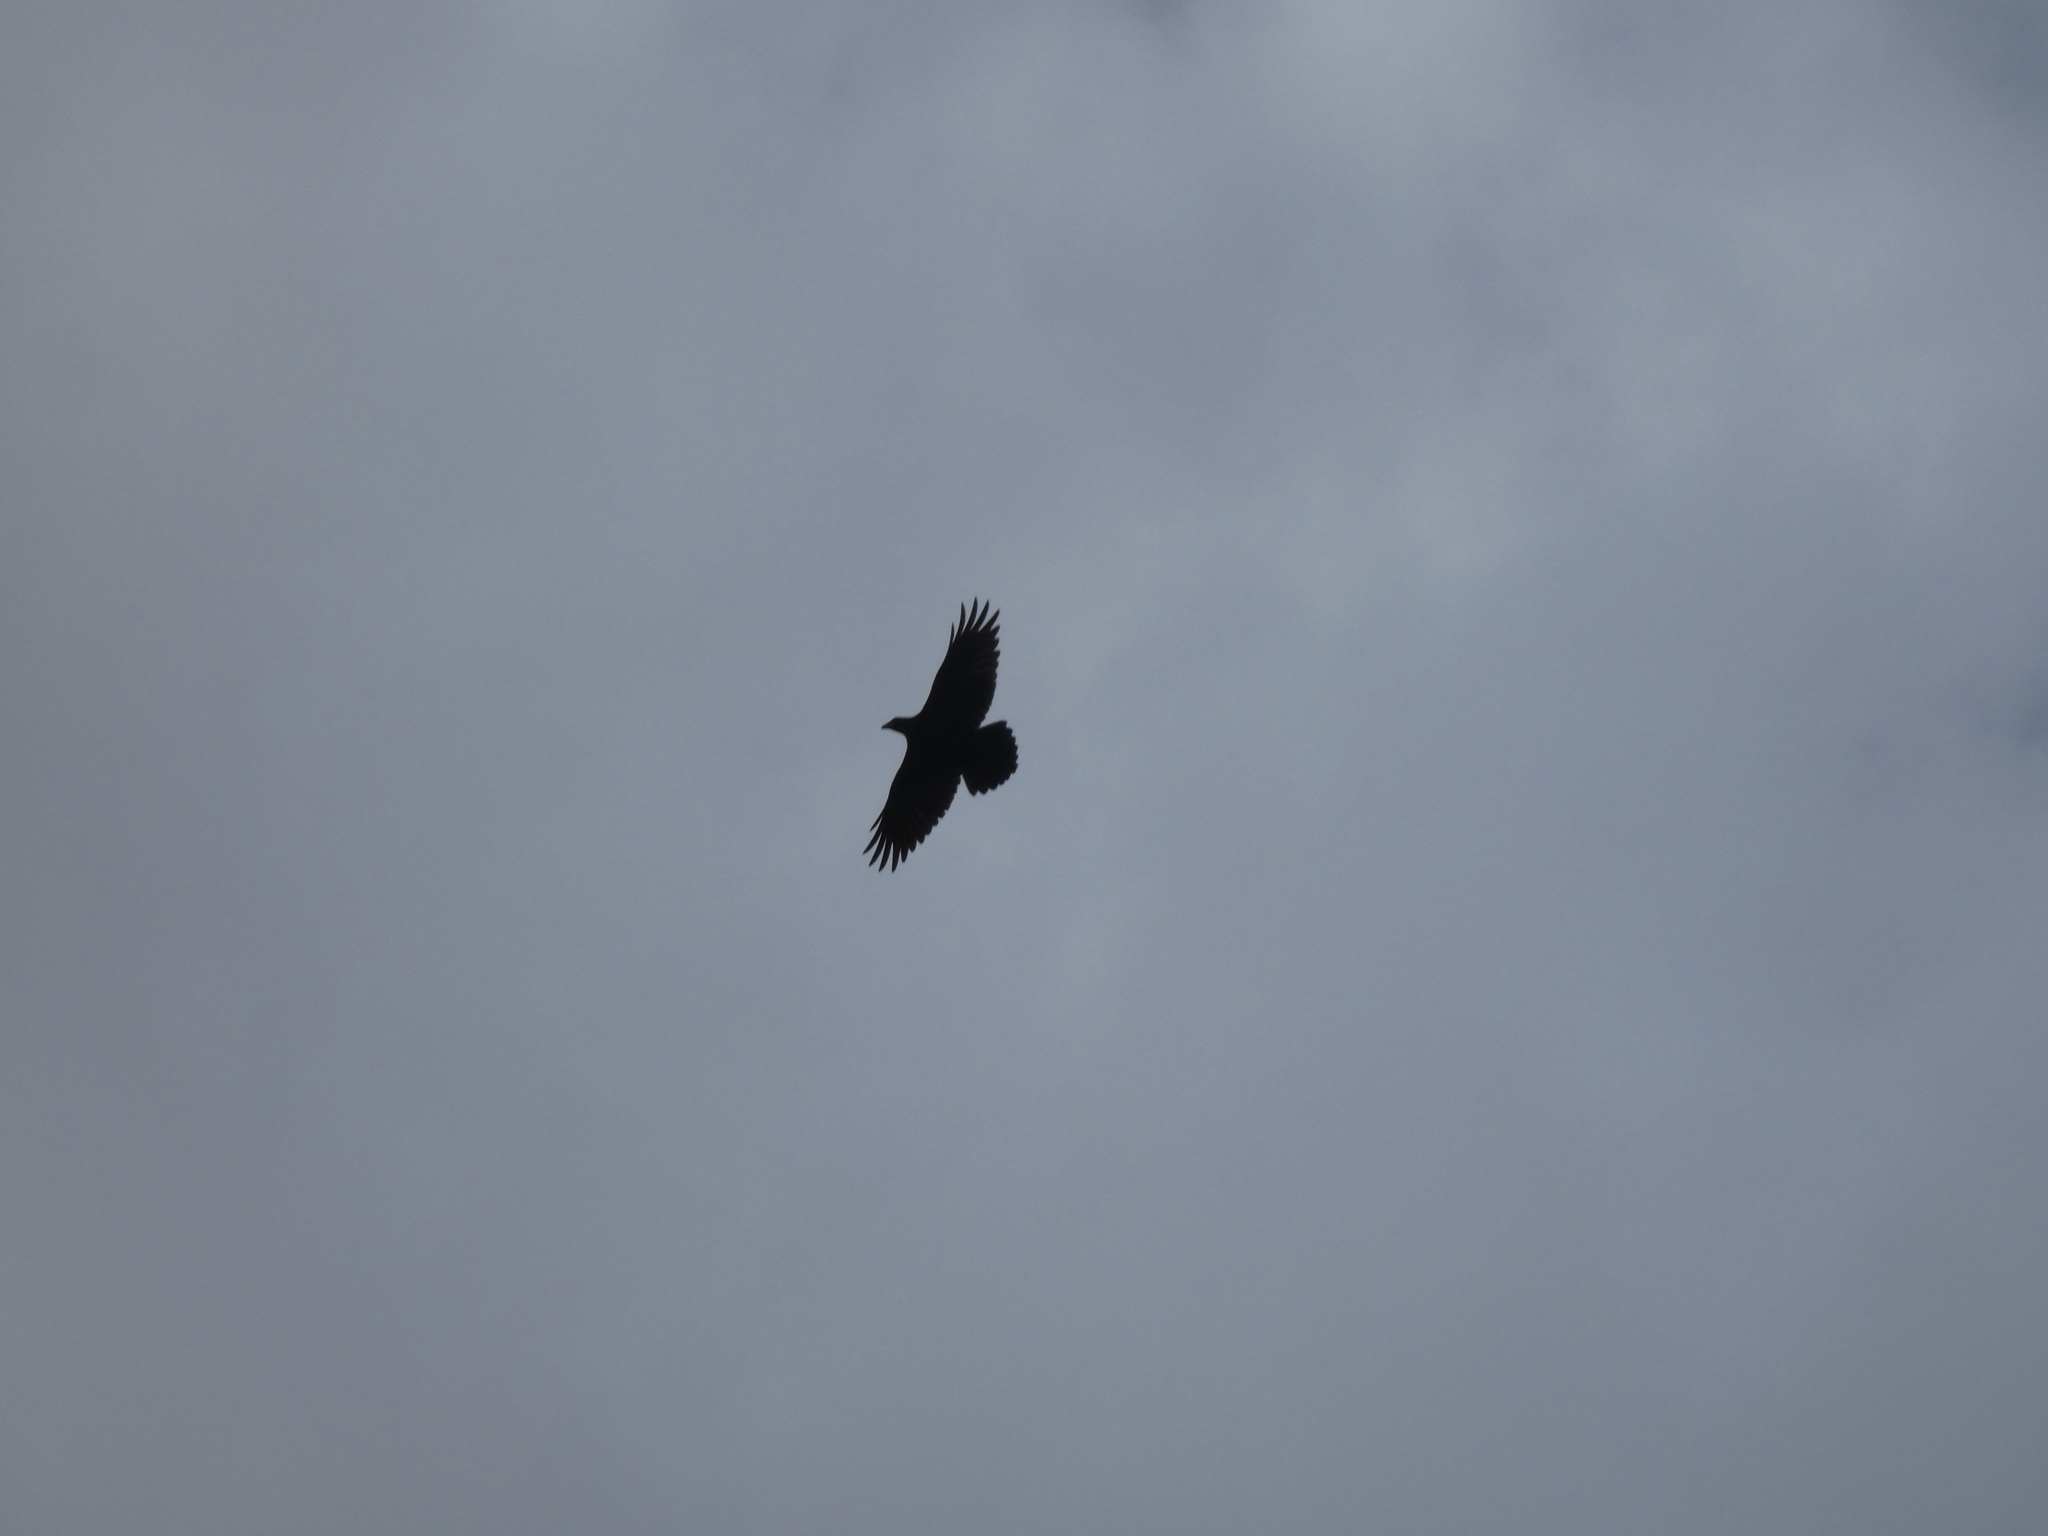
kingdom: Animalia
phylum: Chordata
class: Aves
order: Passeriformes
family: Corvidae
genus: Corvus
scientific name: Corvus corax
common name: Common raven
